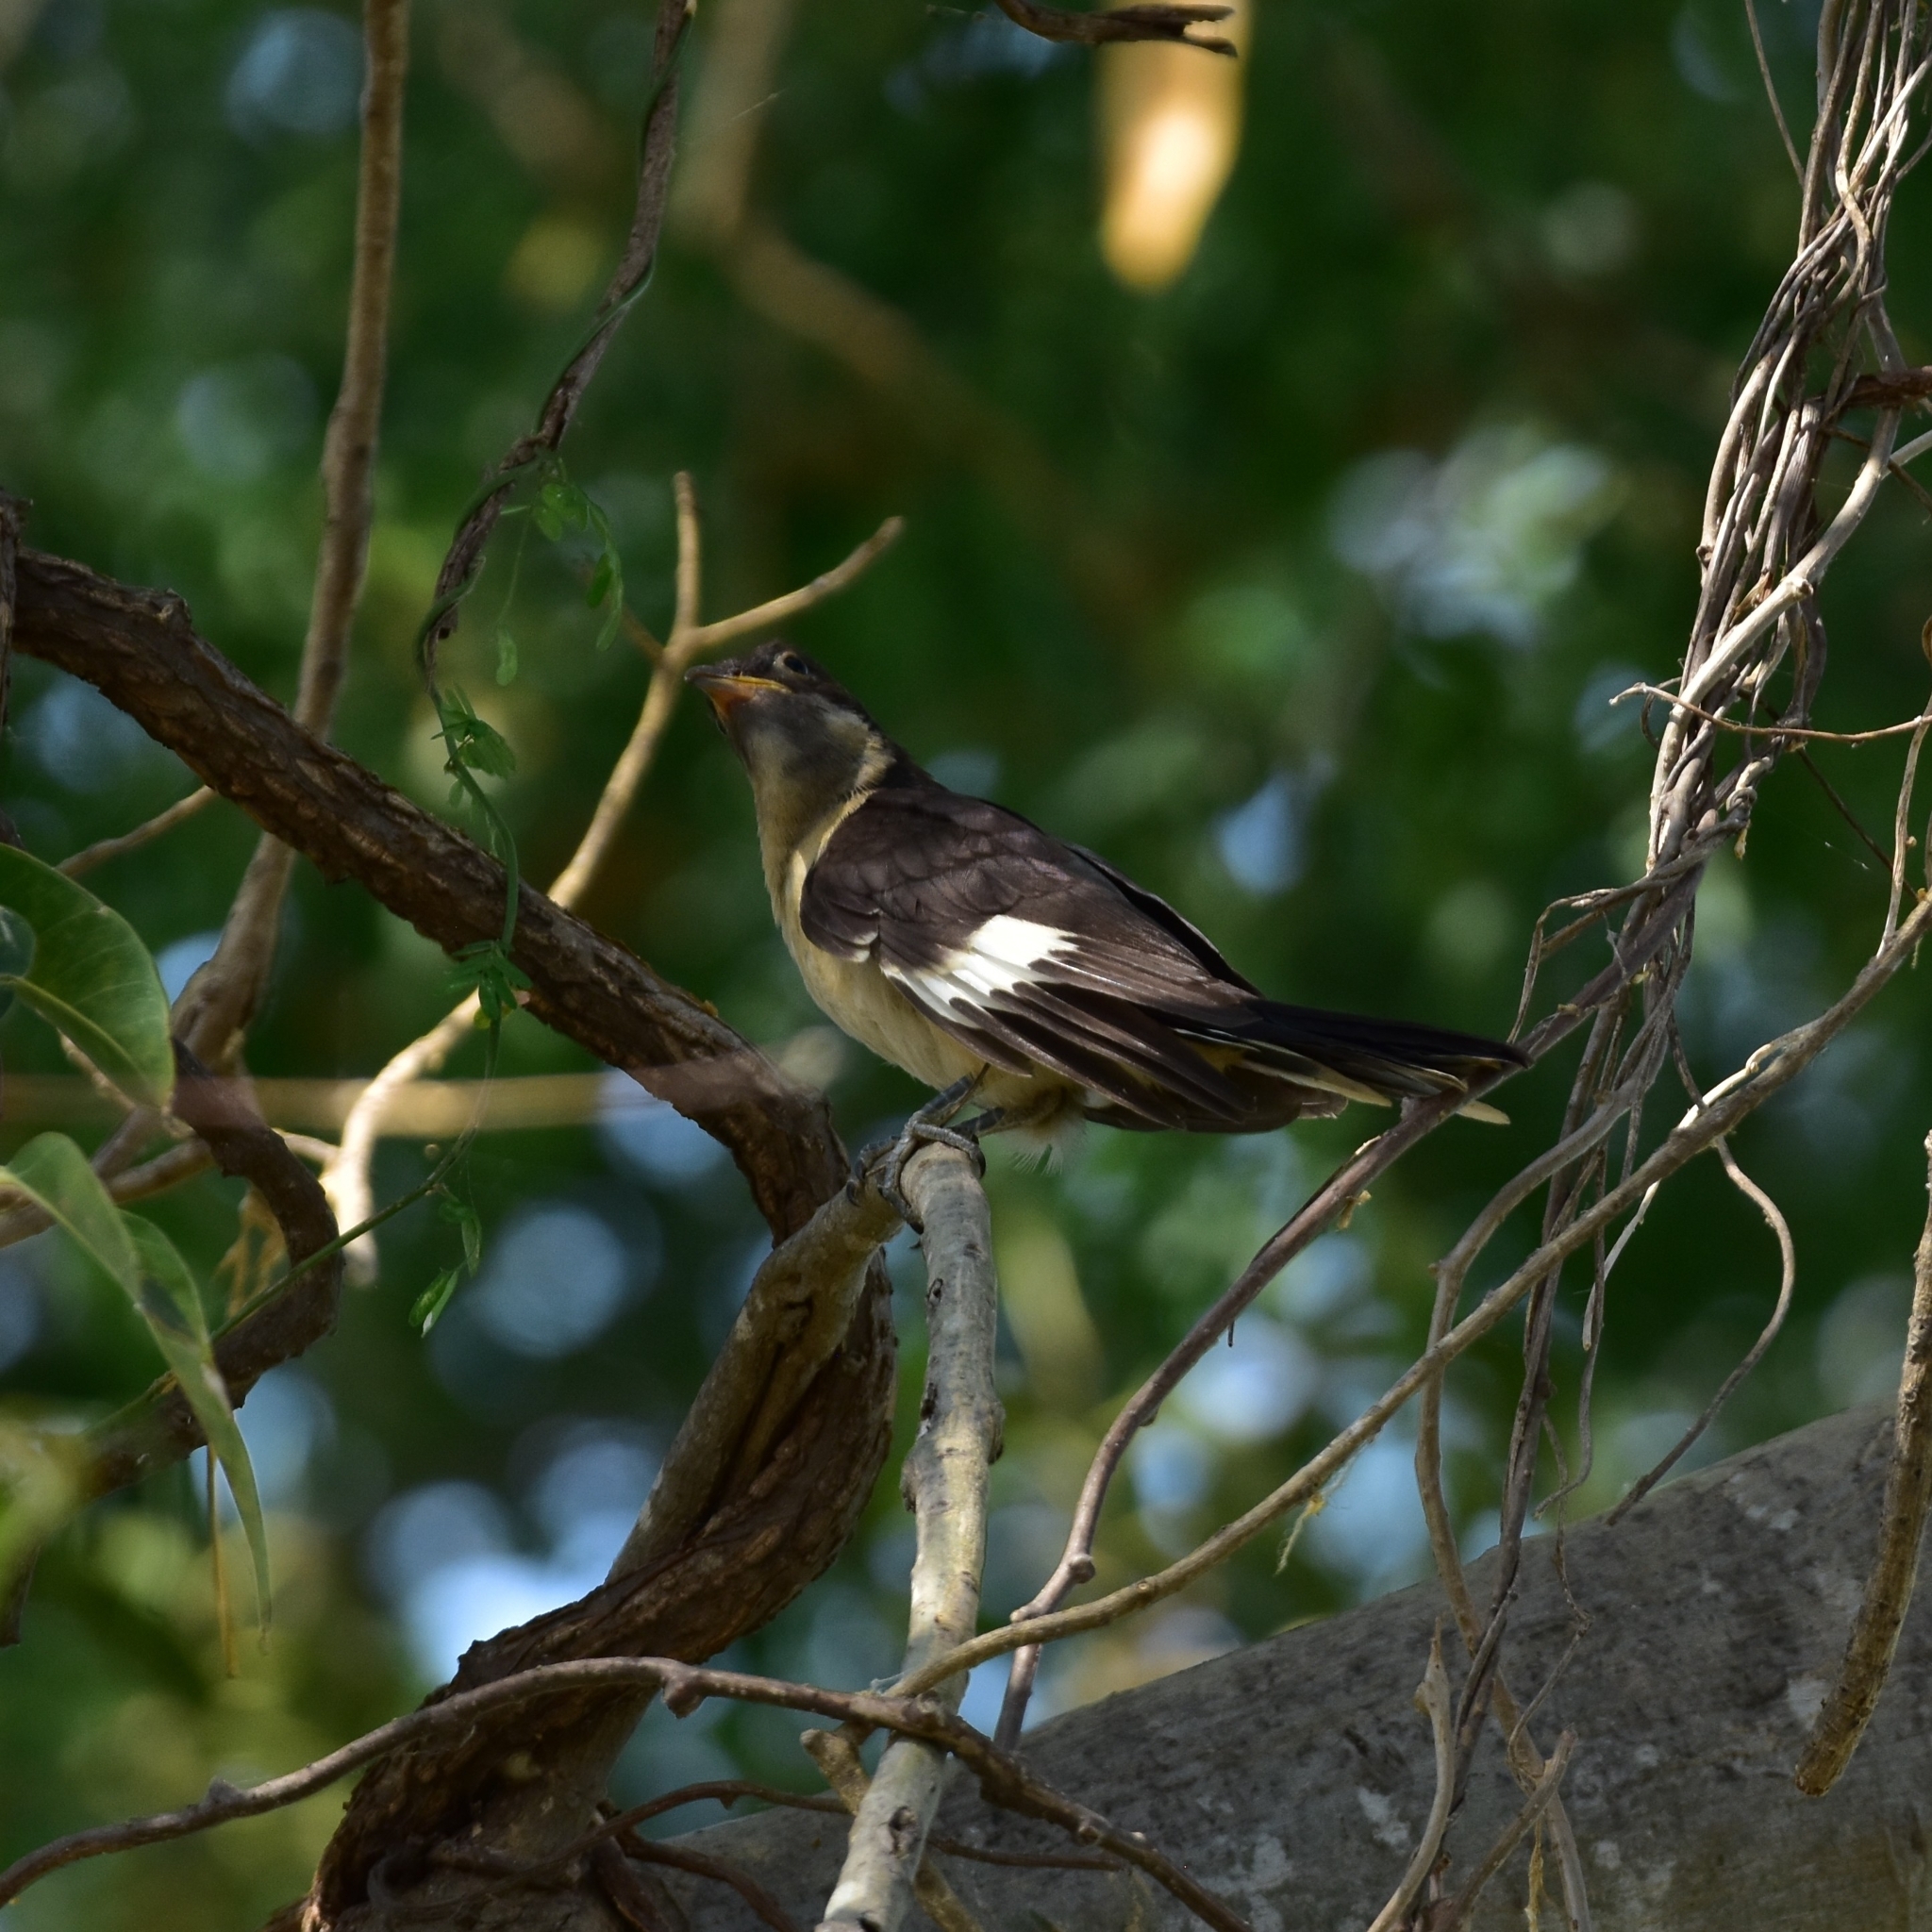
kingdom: Animalia
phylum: Chordata
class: Aves
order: Cuculiformes
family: Cuculidae
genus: Clamator
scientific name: Clamator jacobinus
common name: Jacobin cuckoo
